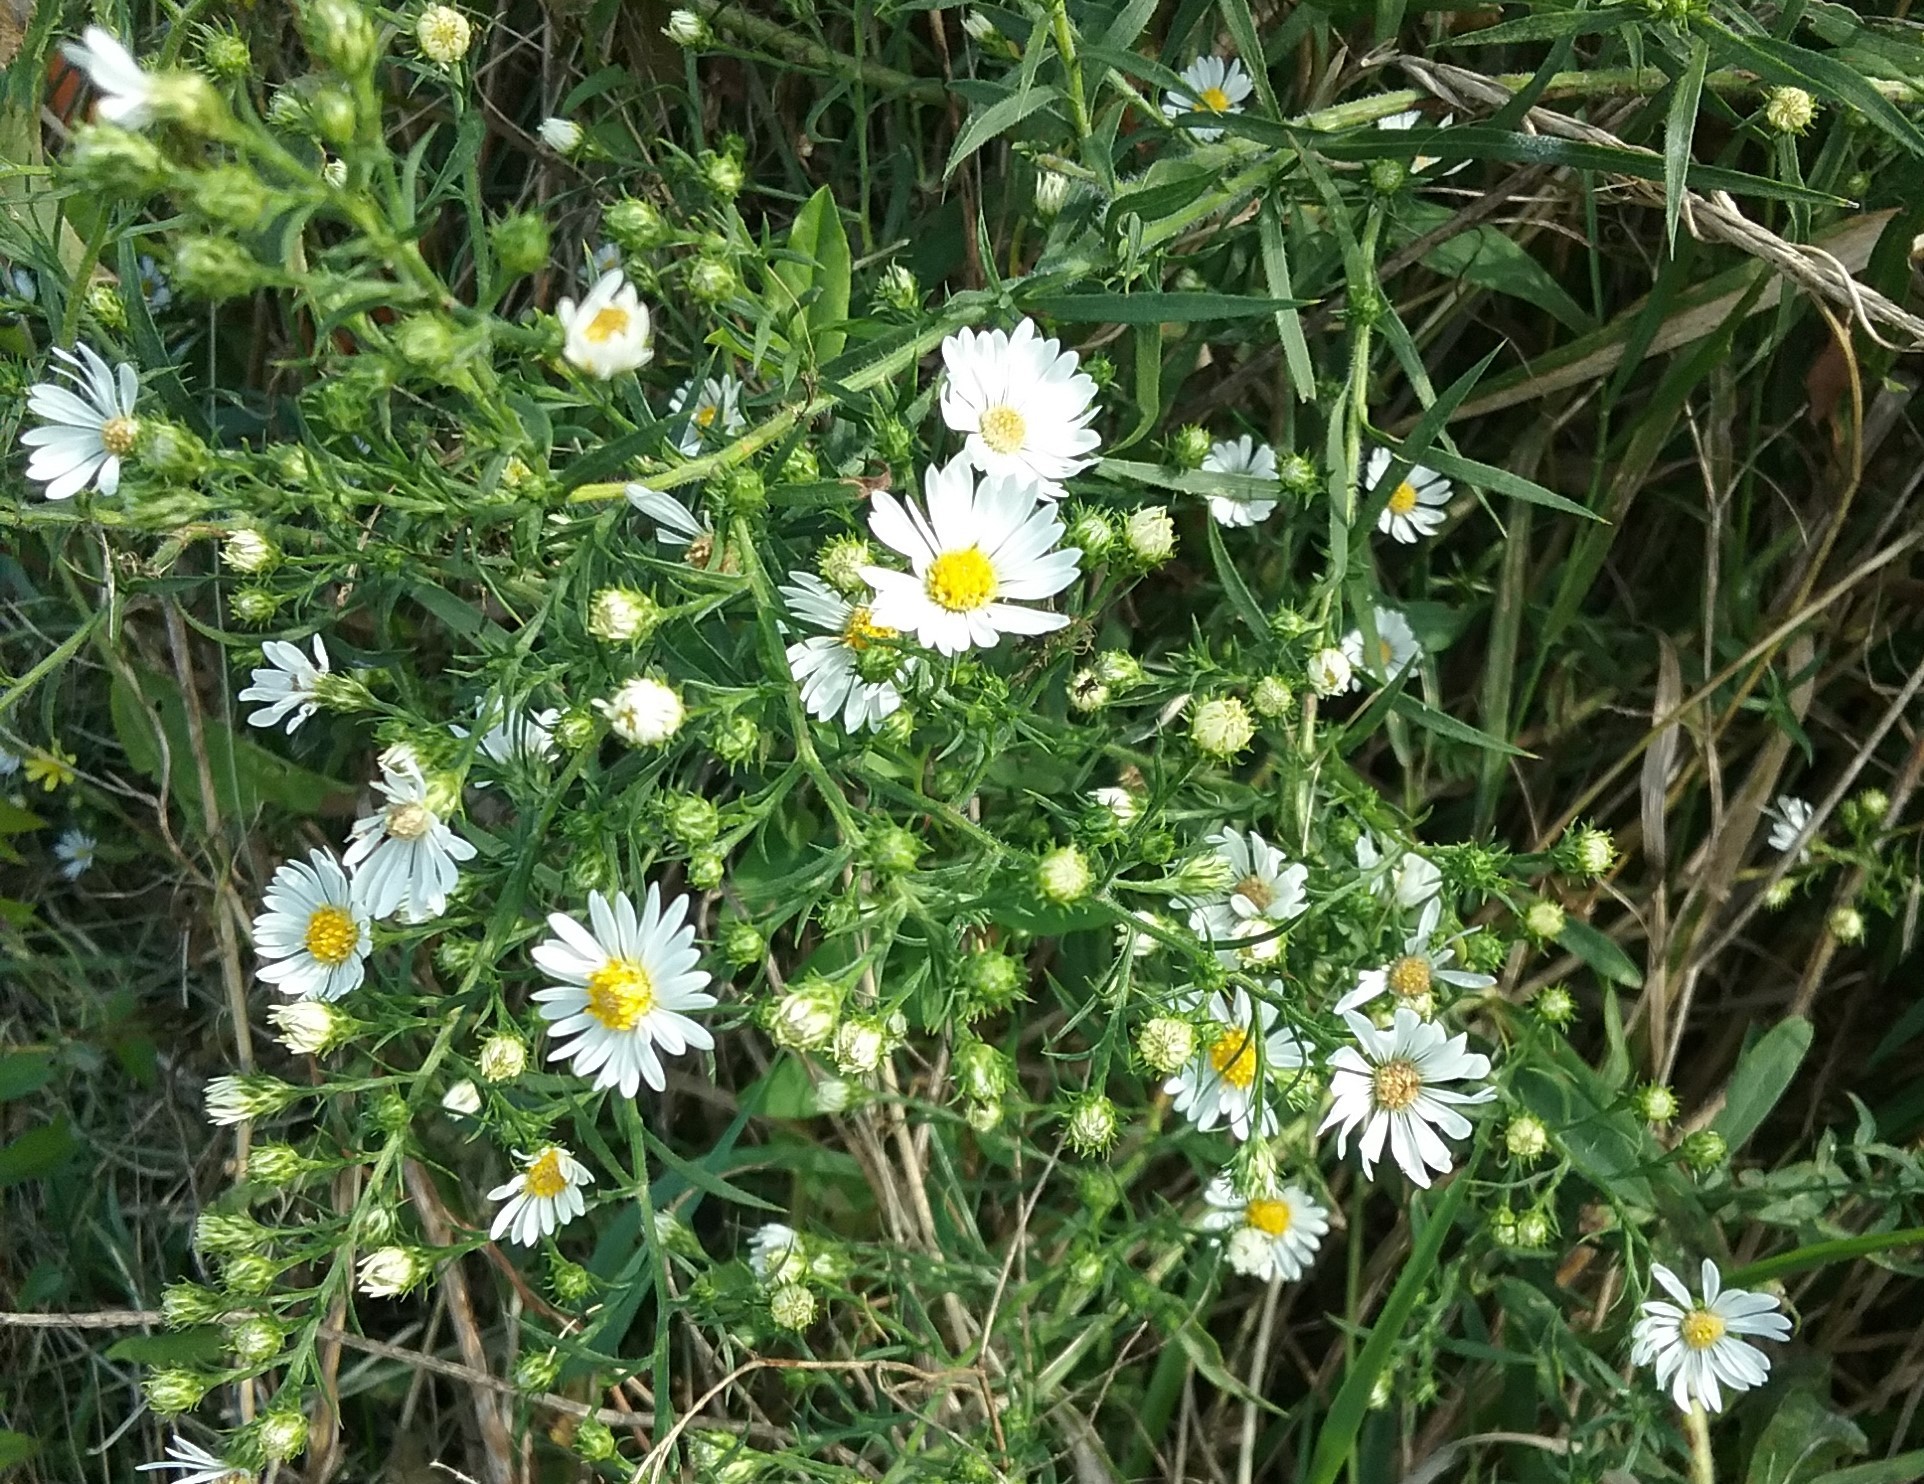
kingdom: Plantae
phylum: Tracheophyta
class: Magnoliopsida
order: Asterales
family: Asteraceae
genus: Symphyotrichum
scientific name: Symphyotrichum pilosum
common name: Awl aster
